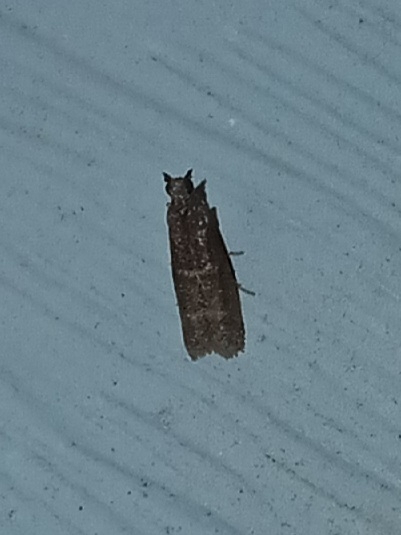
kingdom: Animalia
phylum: Arthropoda
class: Insecta
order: Lepidoptera
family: Pyralidae
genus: Cabnia
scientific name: Cabnia myronella
